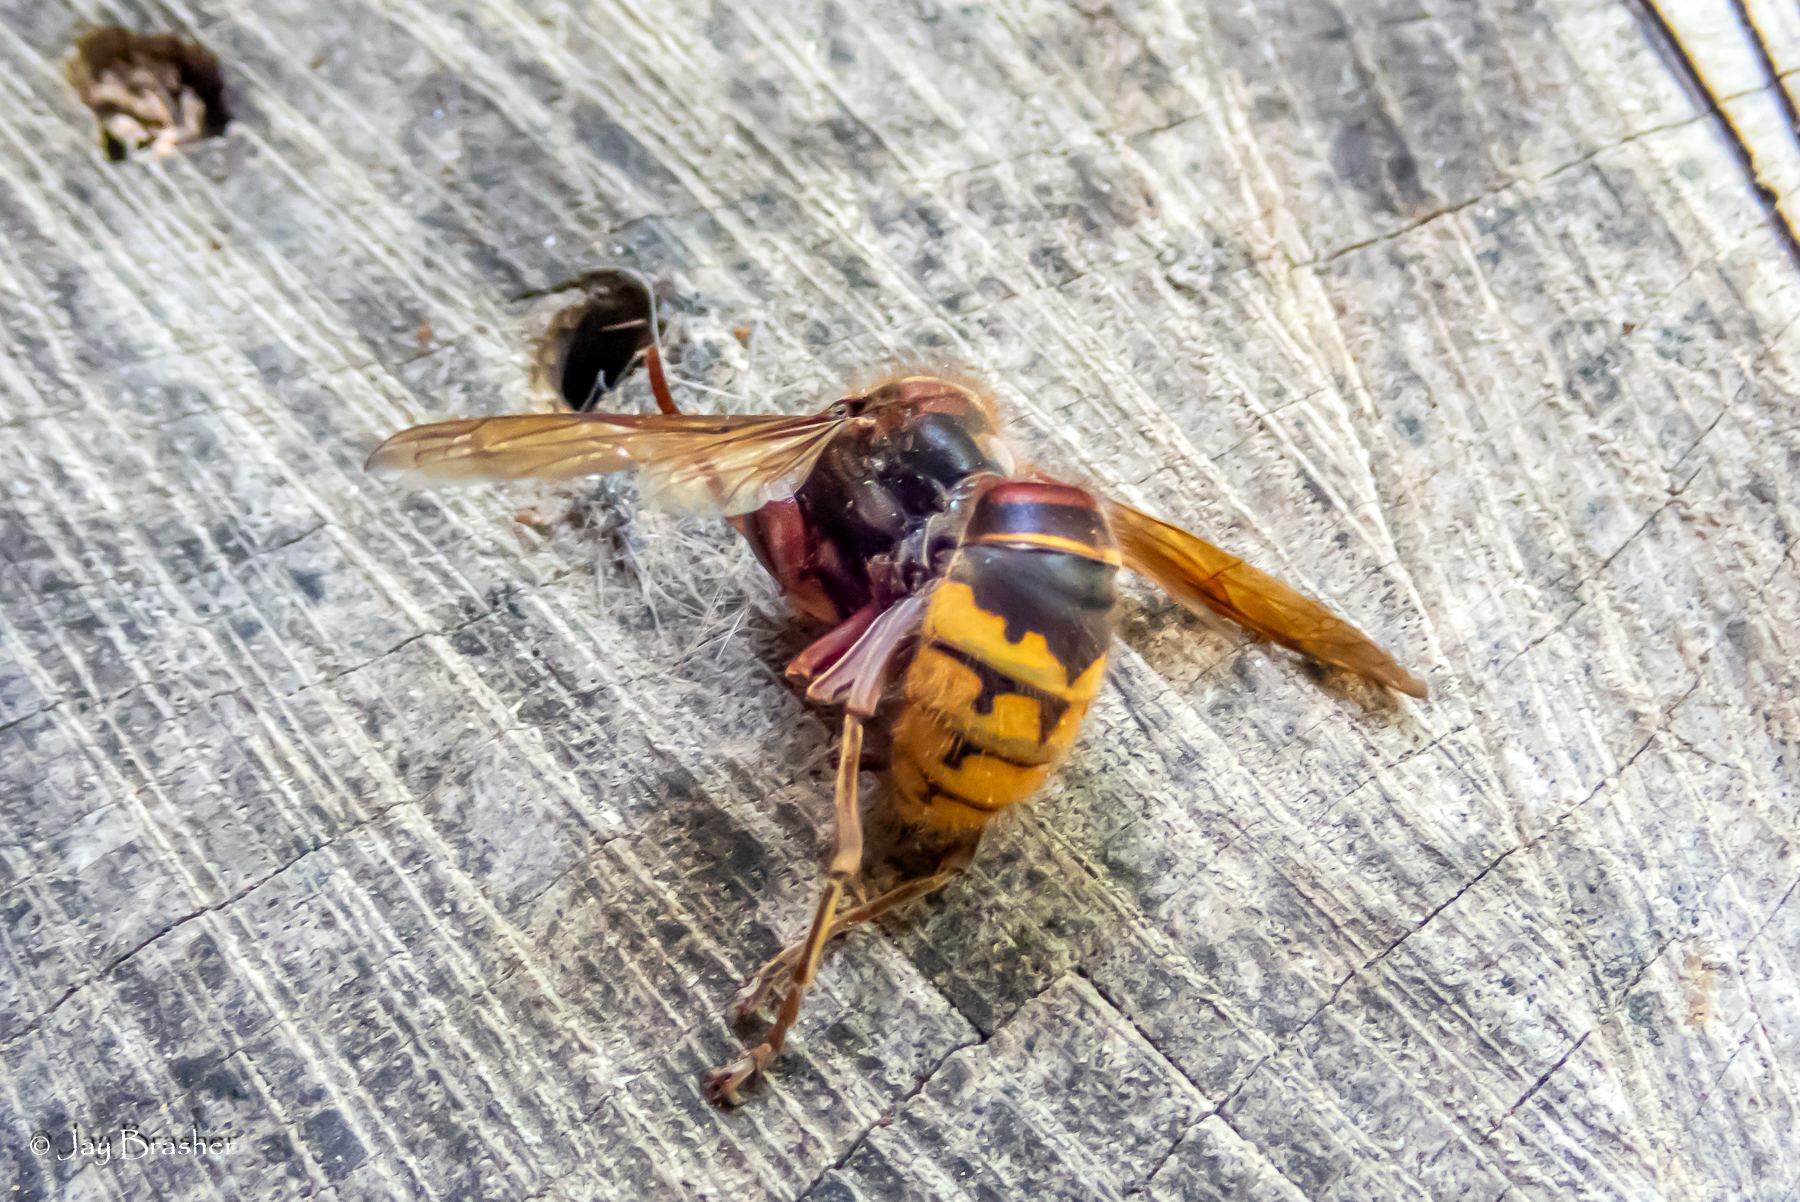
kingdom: Animalia
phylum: Arthropoda
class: Insecta
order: Hymenoptera
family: Vespidae
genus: Vespa
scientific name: Vespa crabro
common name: Hornet
